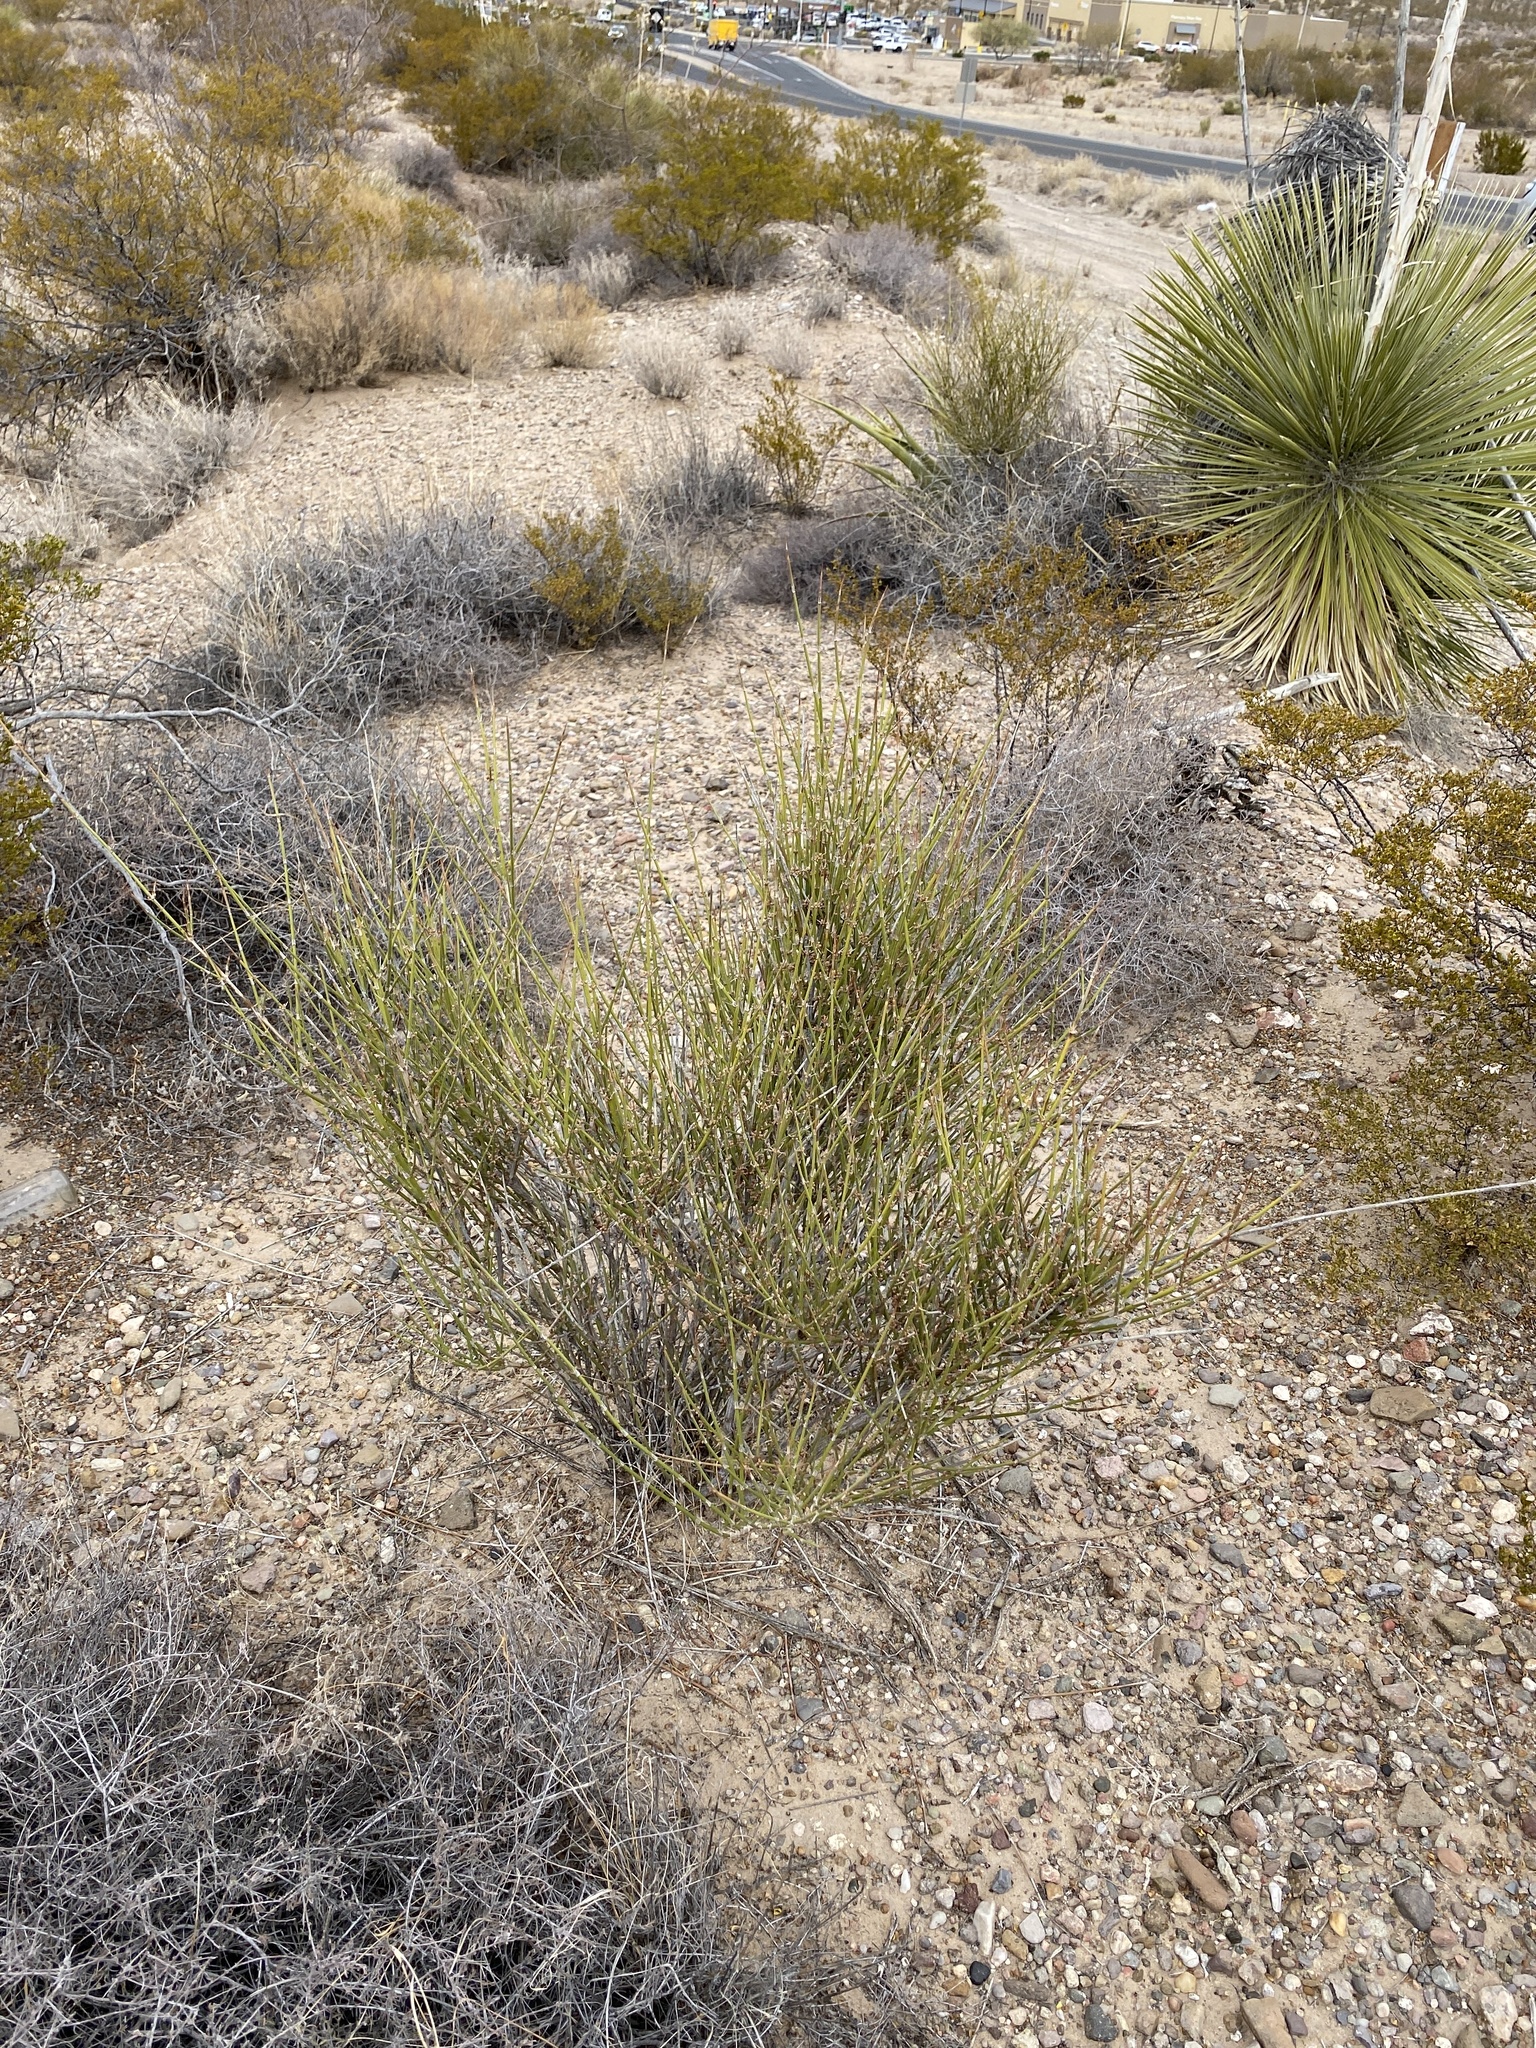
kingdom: Plantae
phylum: Tracheophyta
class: Gnetopsida
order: Ephedrales
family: Ephedraceae
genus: Ephedra
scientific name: Ephedra trifurca
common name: Mexican-tea
